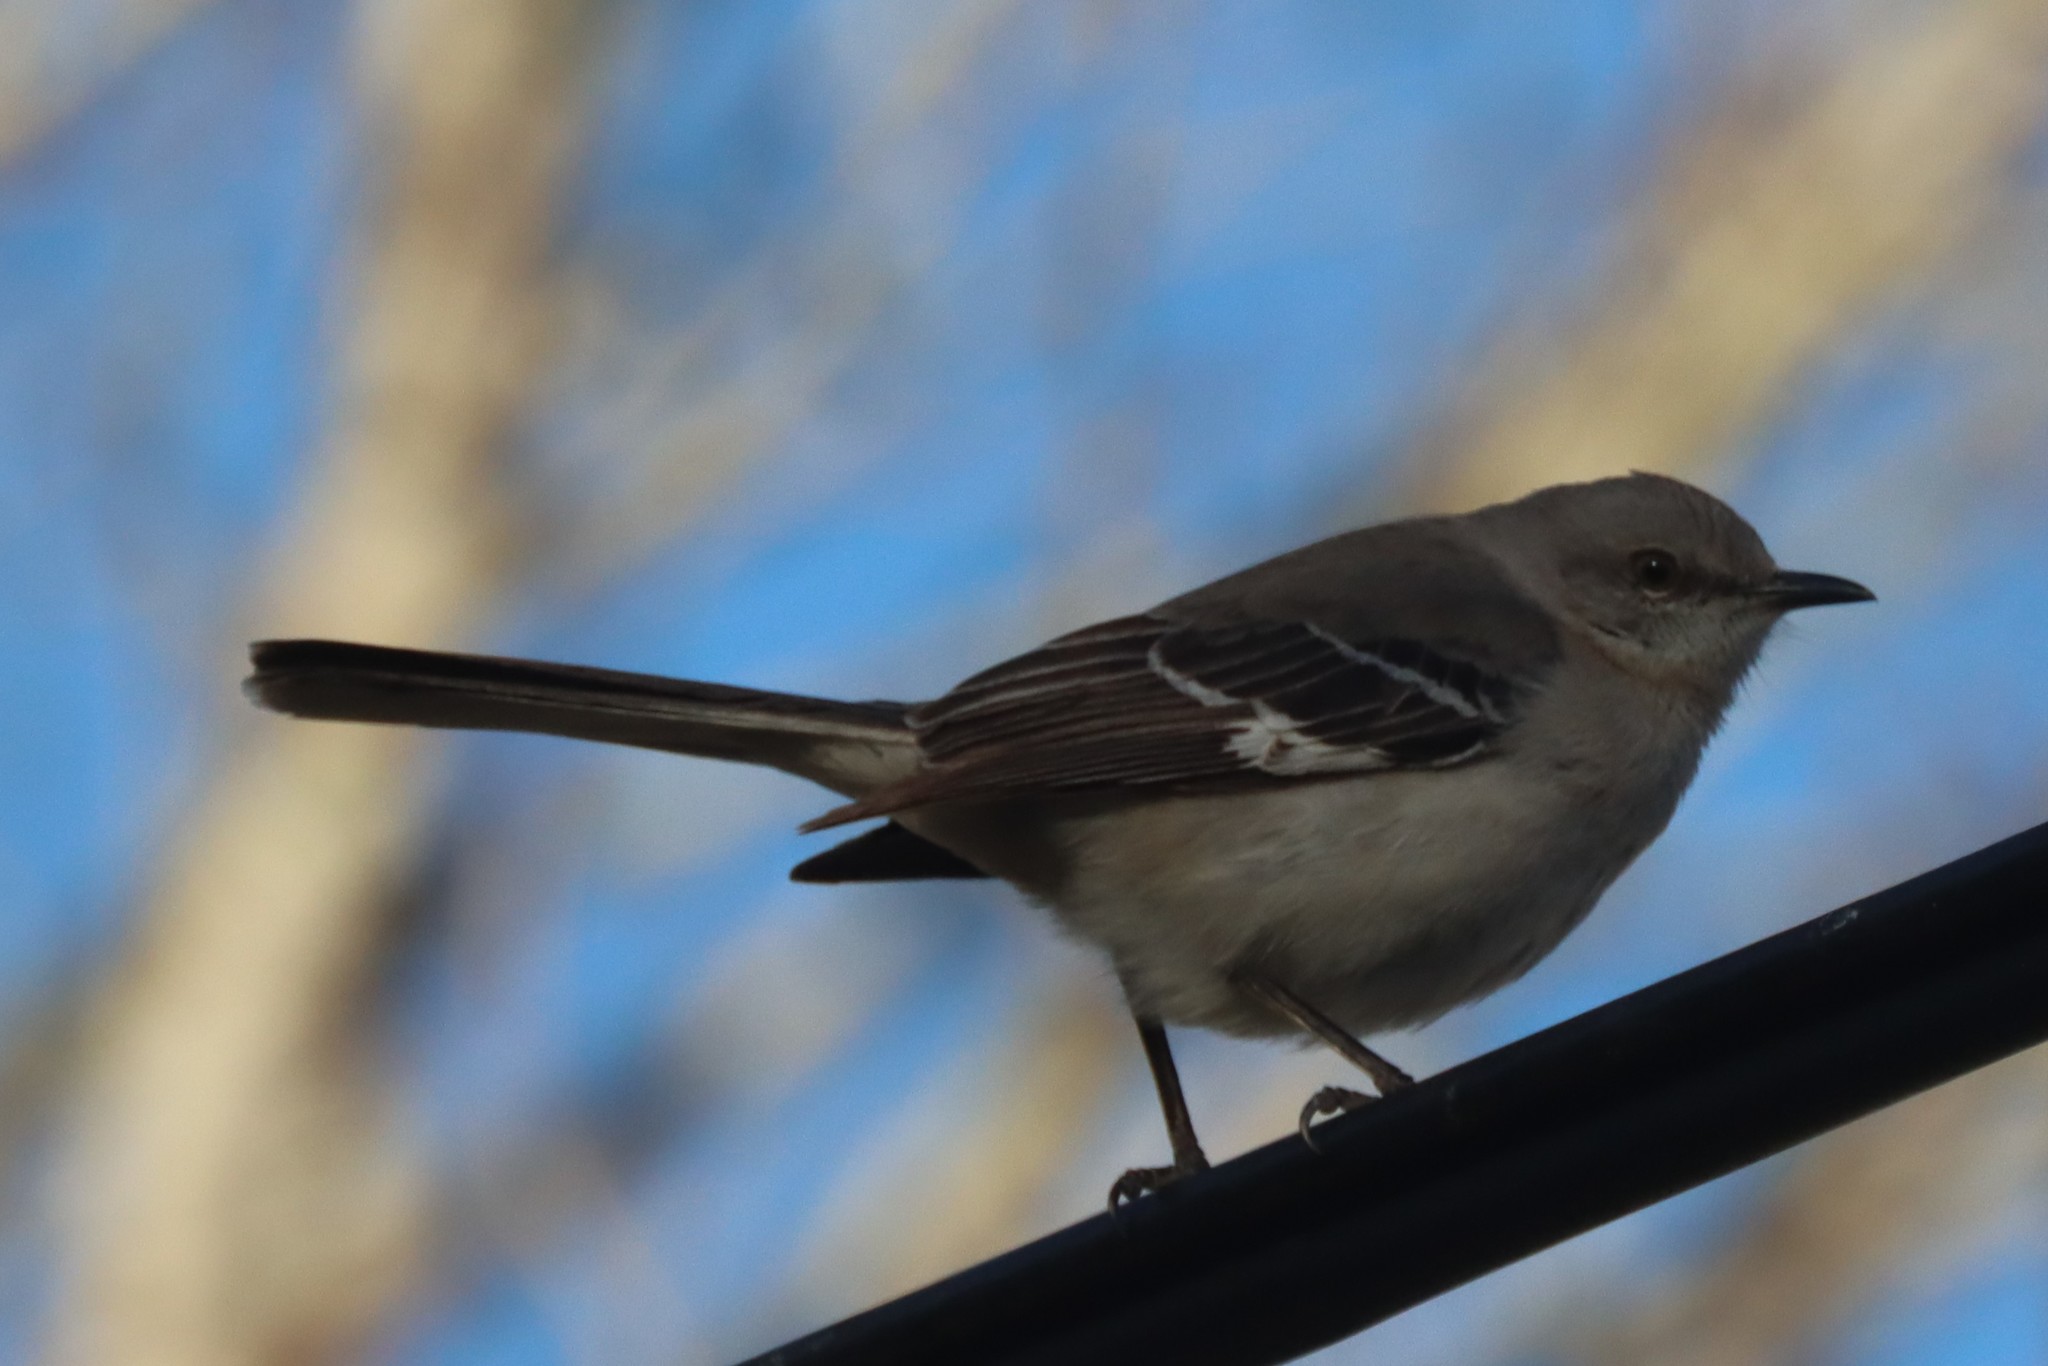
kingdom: Animalia
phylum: Chordata
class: Aves
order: Passeriformes
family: Mimidae
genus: Mimus
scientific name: Mimus polyglottos
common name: Northern mockingbird
